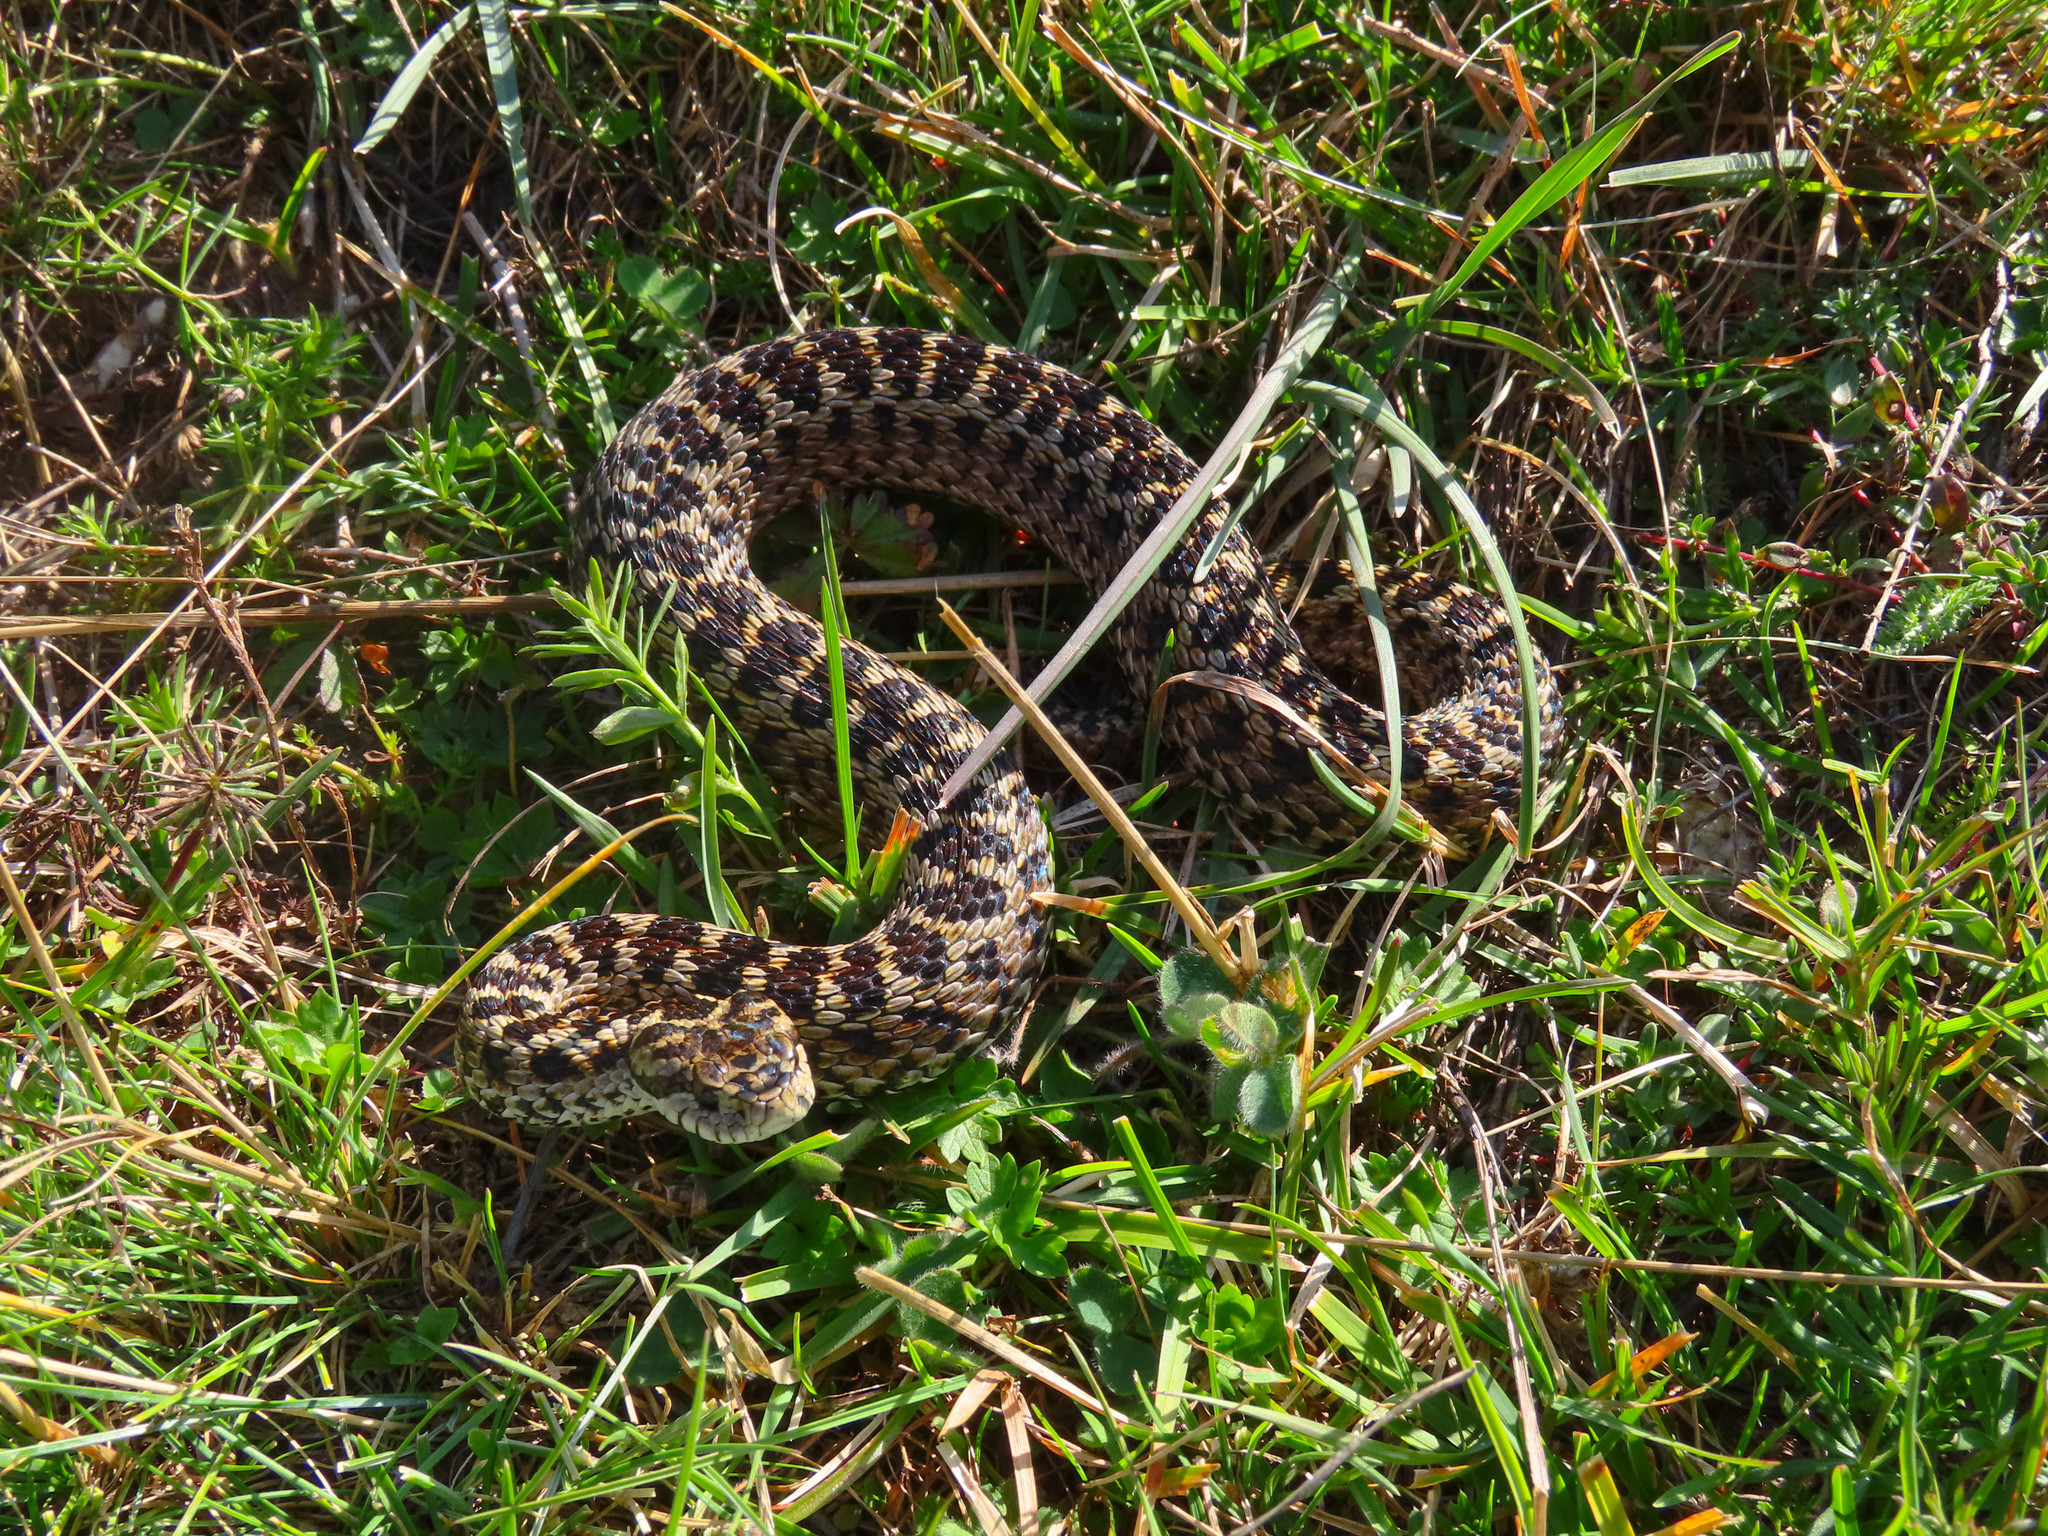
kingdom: Animalia
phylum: Chordata
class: Squamata
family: Viperidae
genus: Vipera
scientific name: Vipera ursinii
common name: Meadow viper
